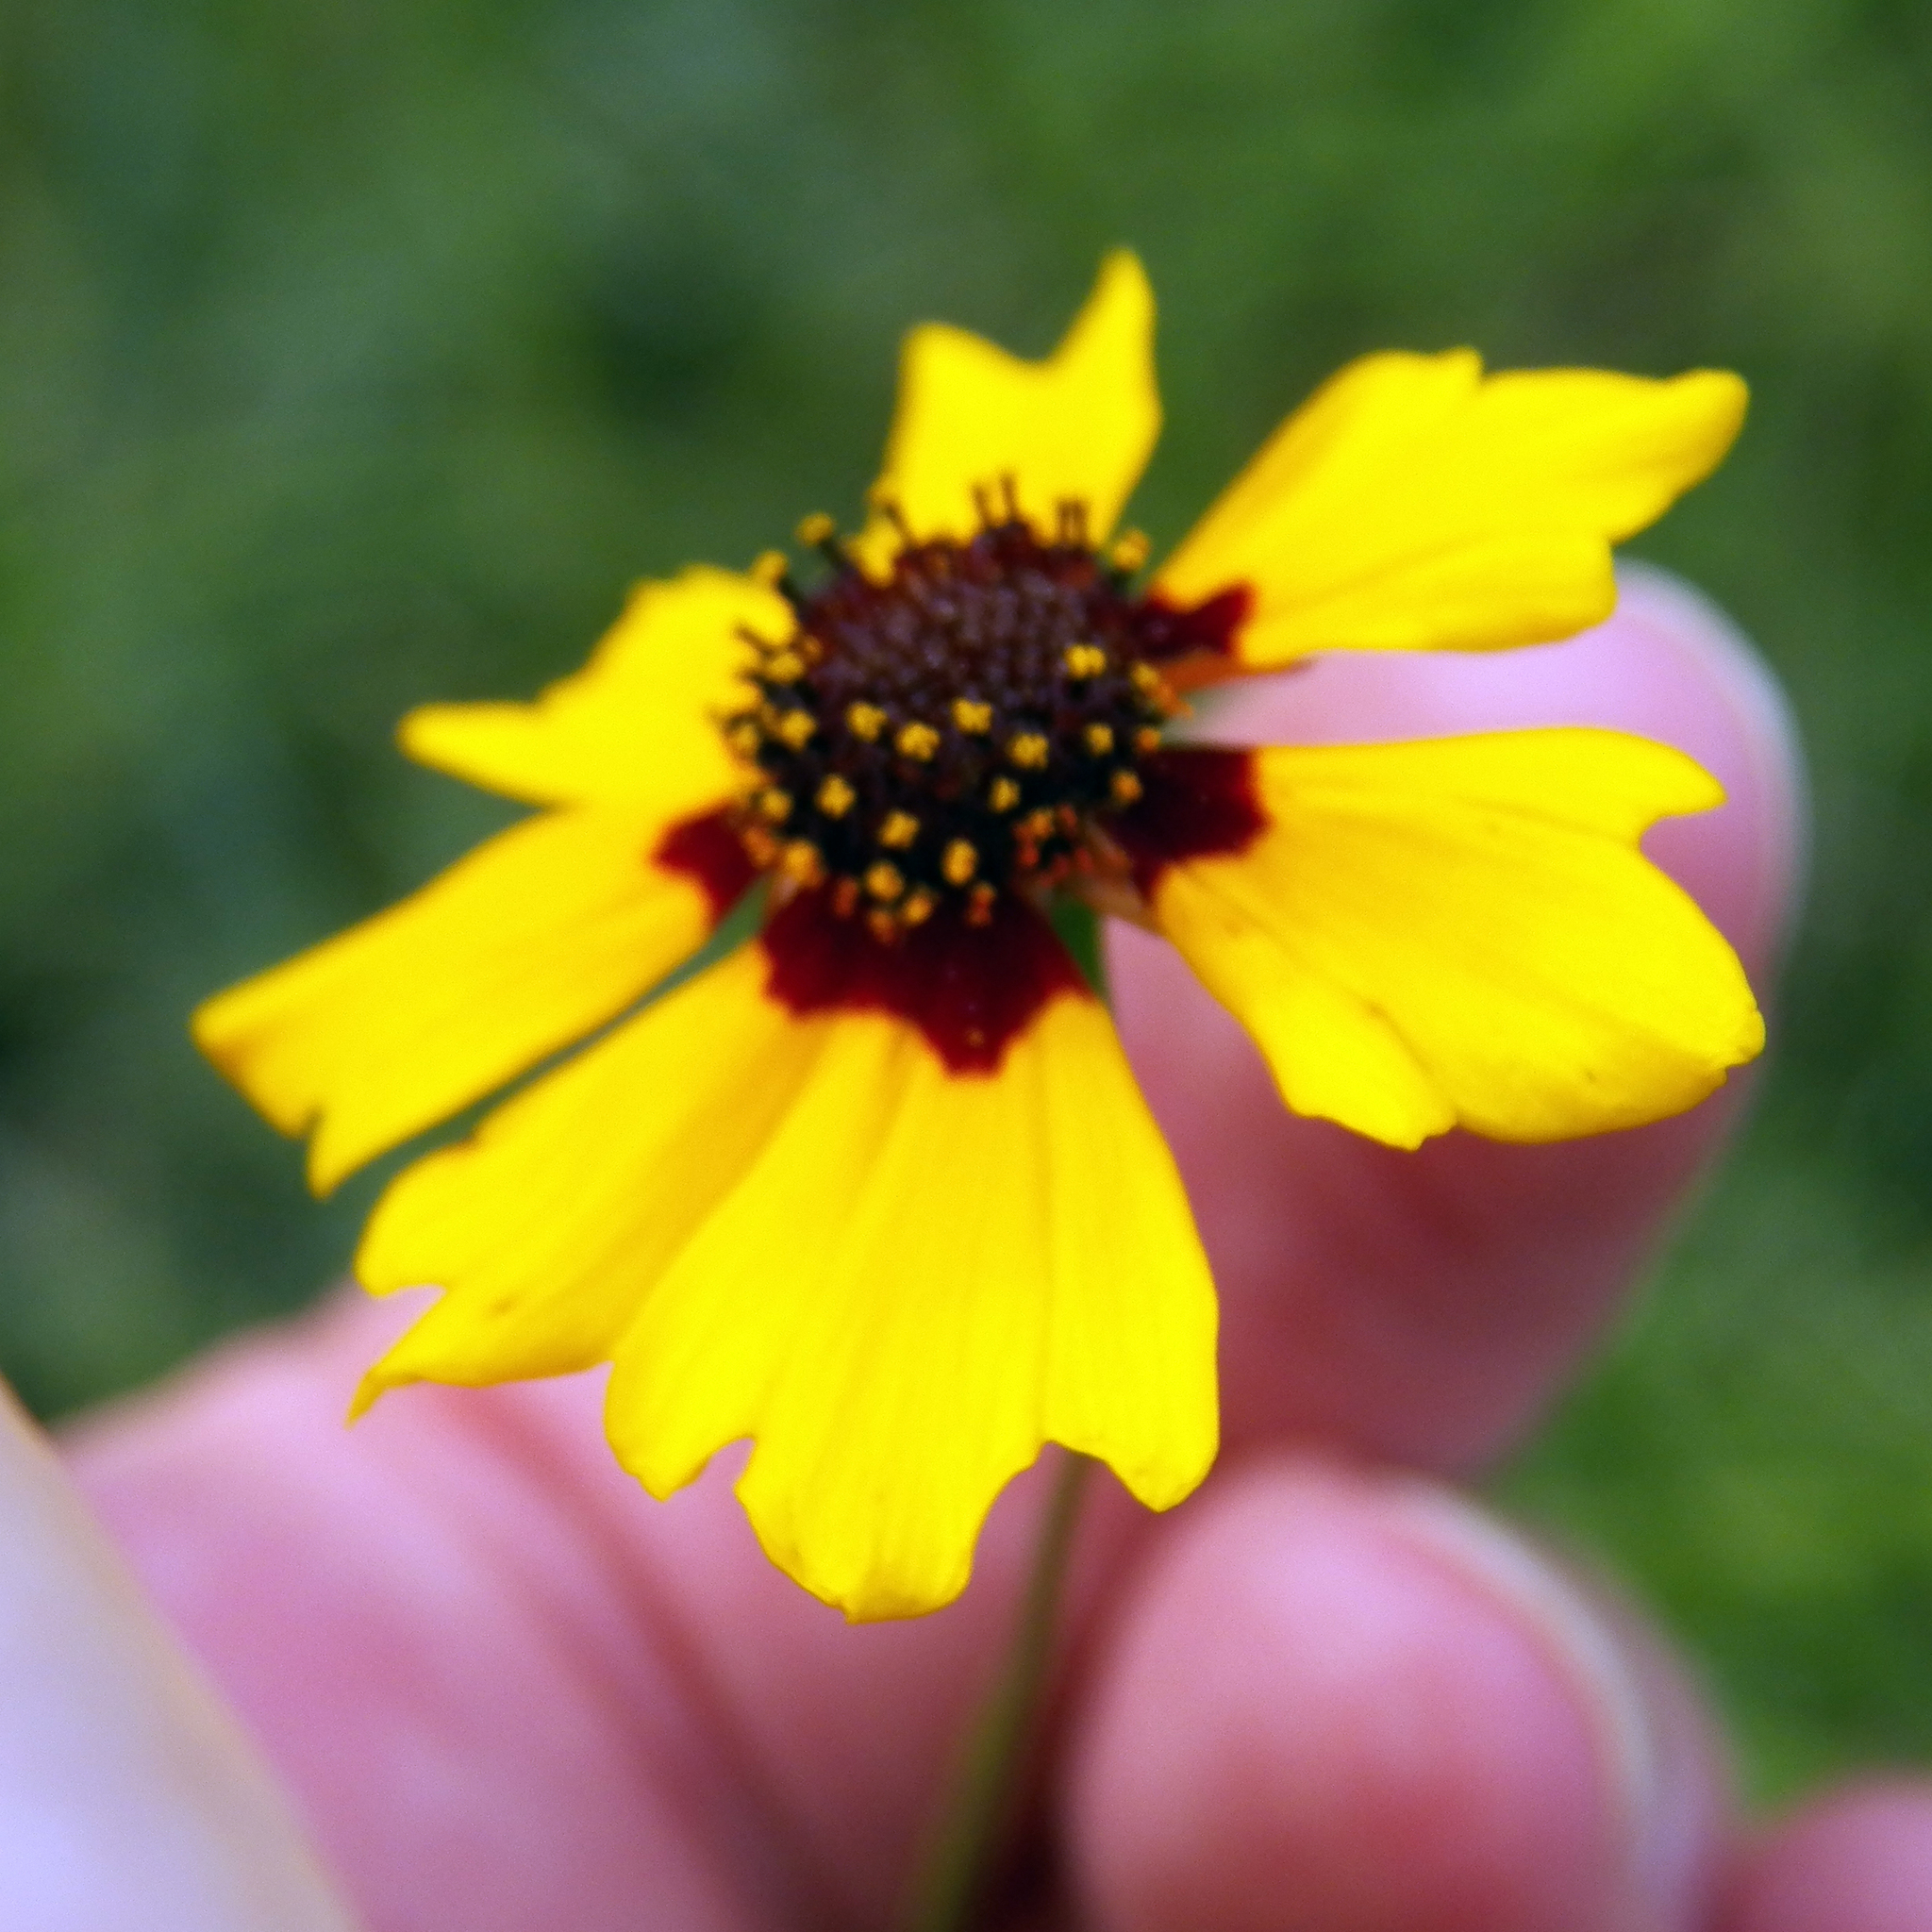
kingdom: Plantae
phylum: Tracheophyta
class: Magnoliopsida
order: Asterales
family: Asteraceae
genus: Coreopsis
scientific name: Coreopsis tinctoria
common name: Garden tickseed
